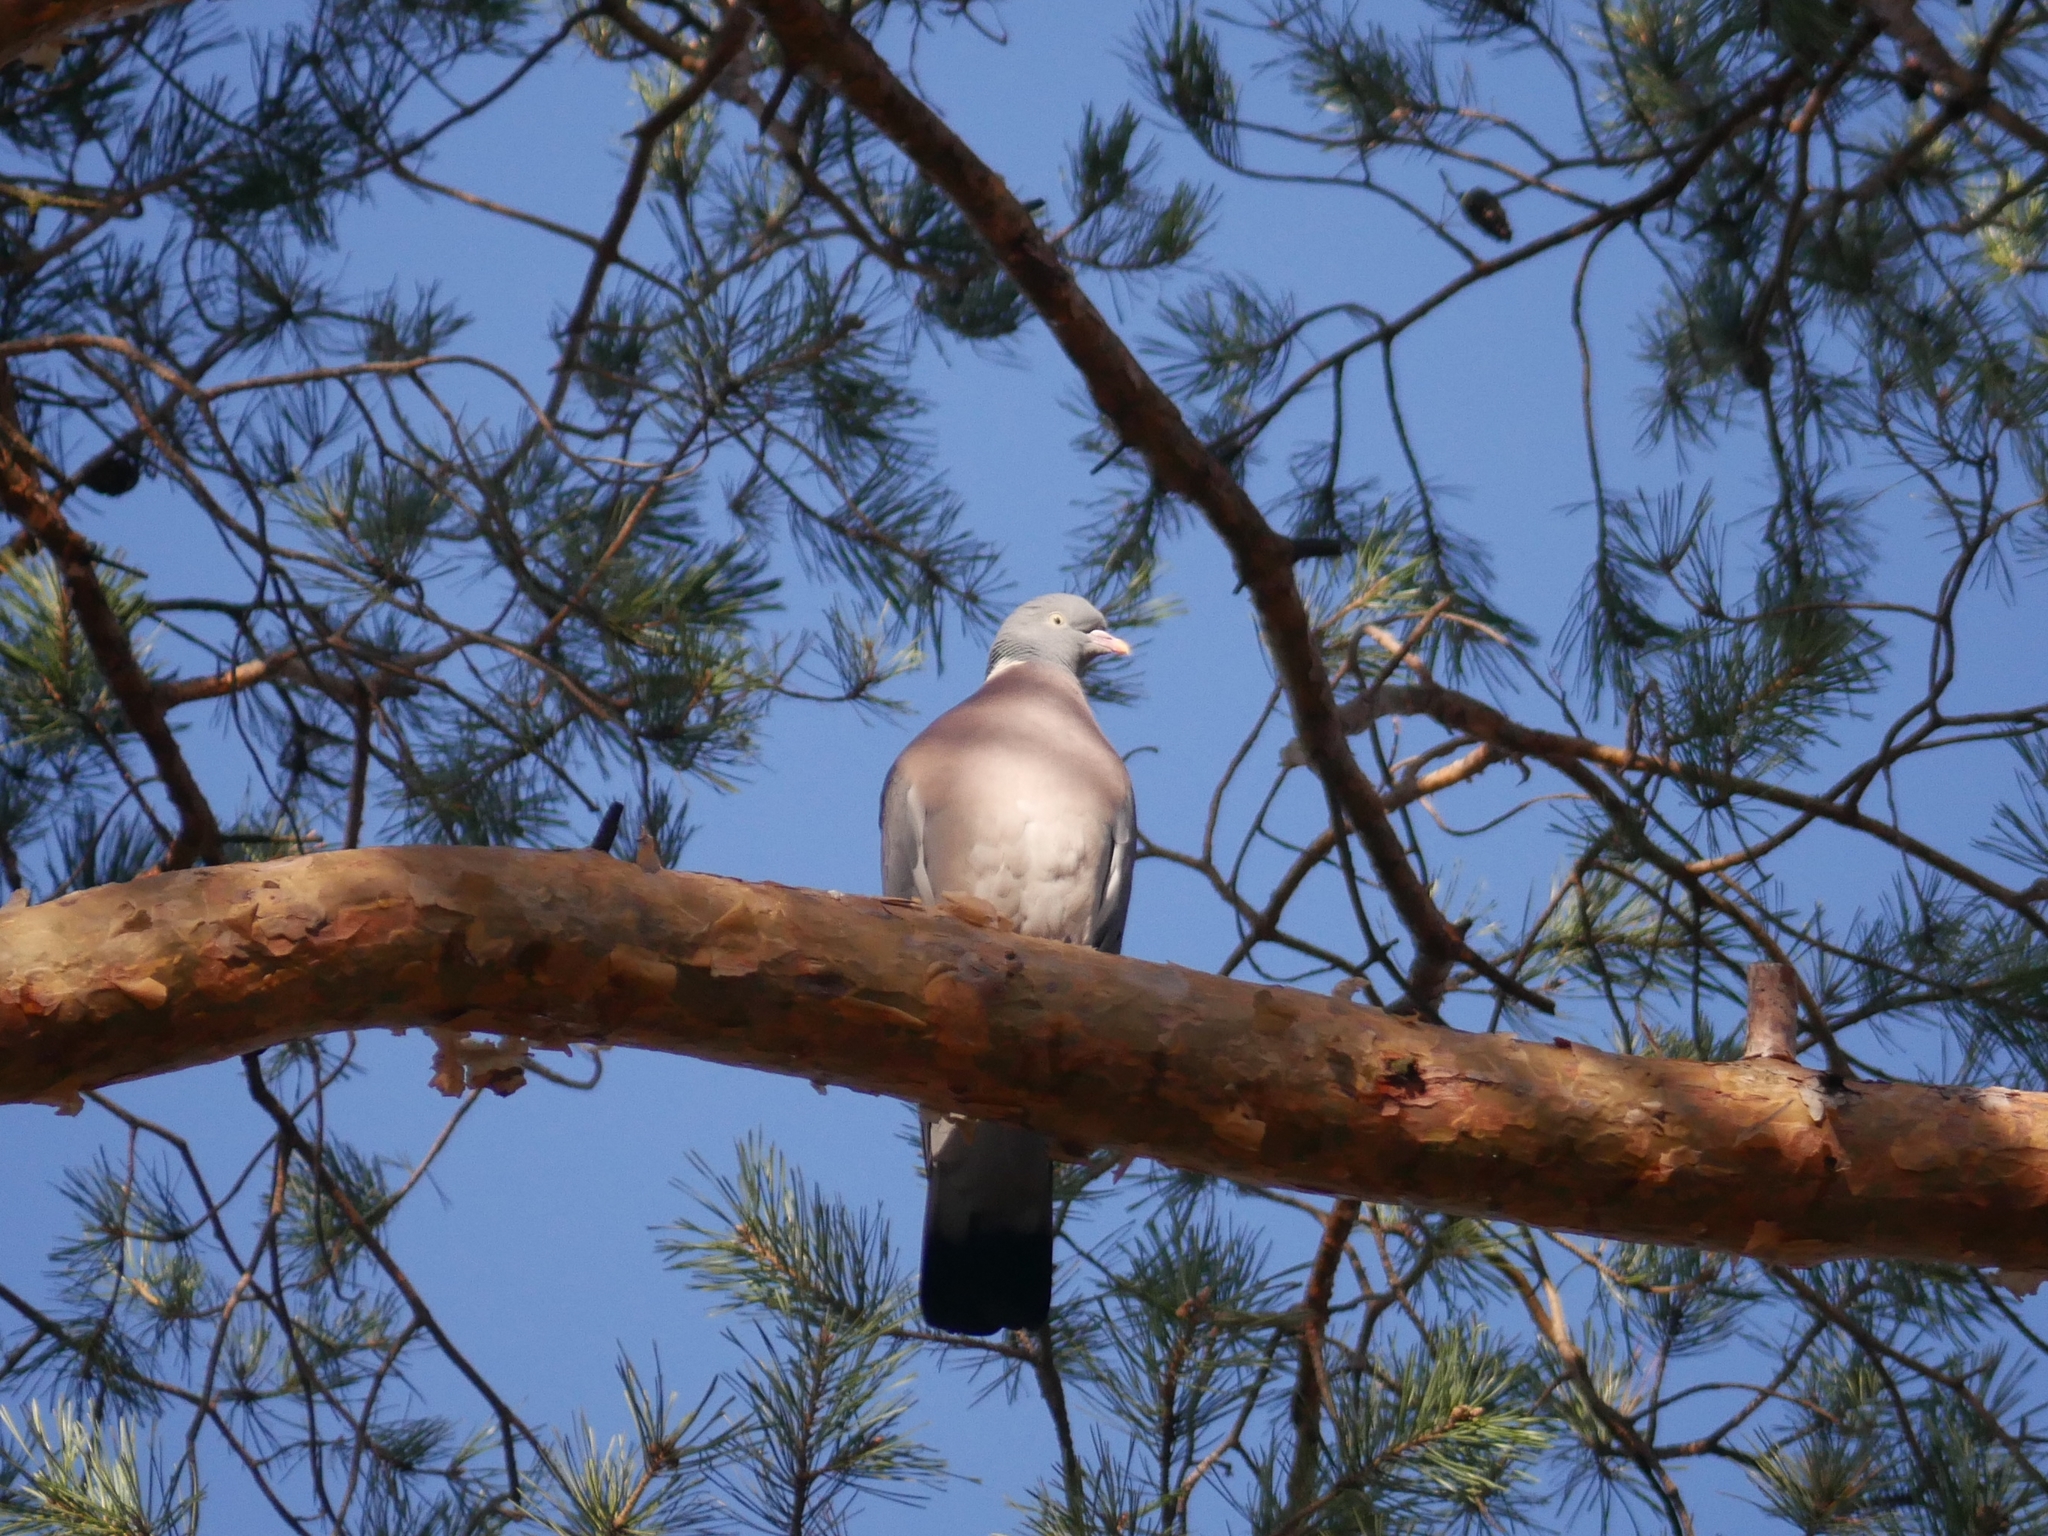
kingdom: Animalia
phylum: Chordata
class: Aves
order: Columbiformes
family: Columbidae
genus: Columba
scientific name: Columba palumbus
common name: Common wood pigeon
